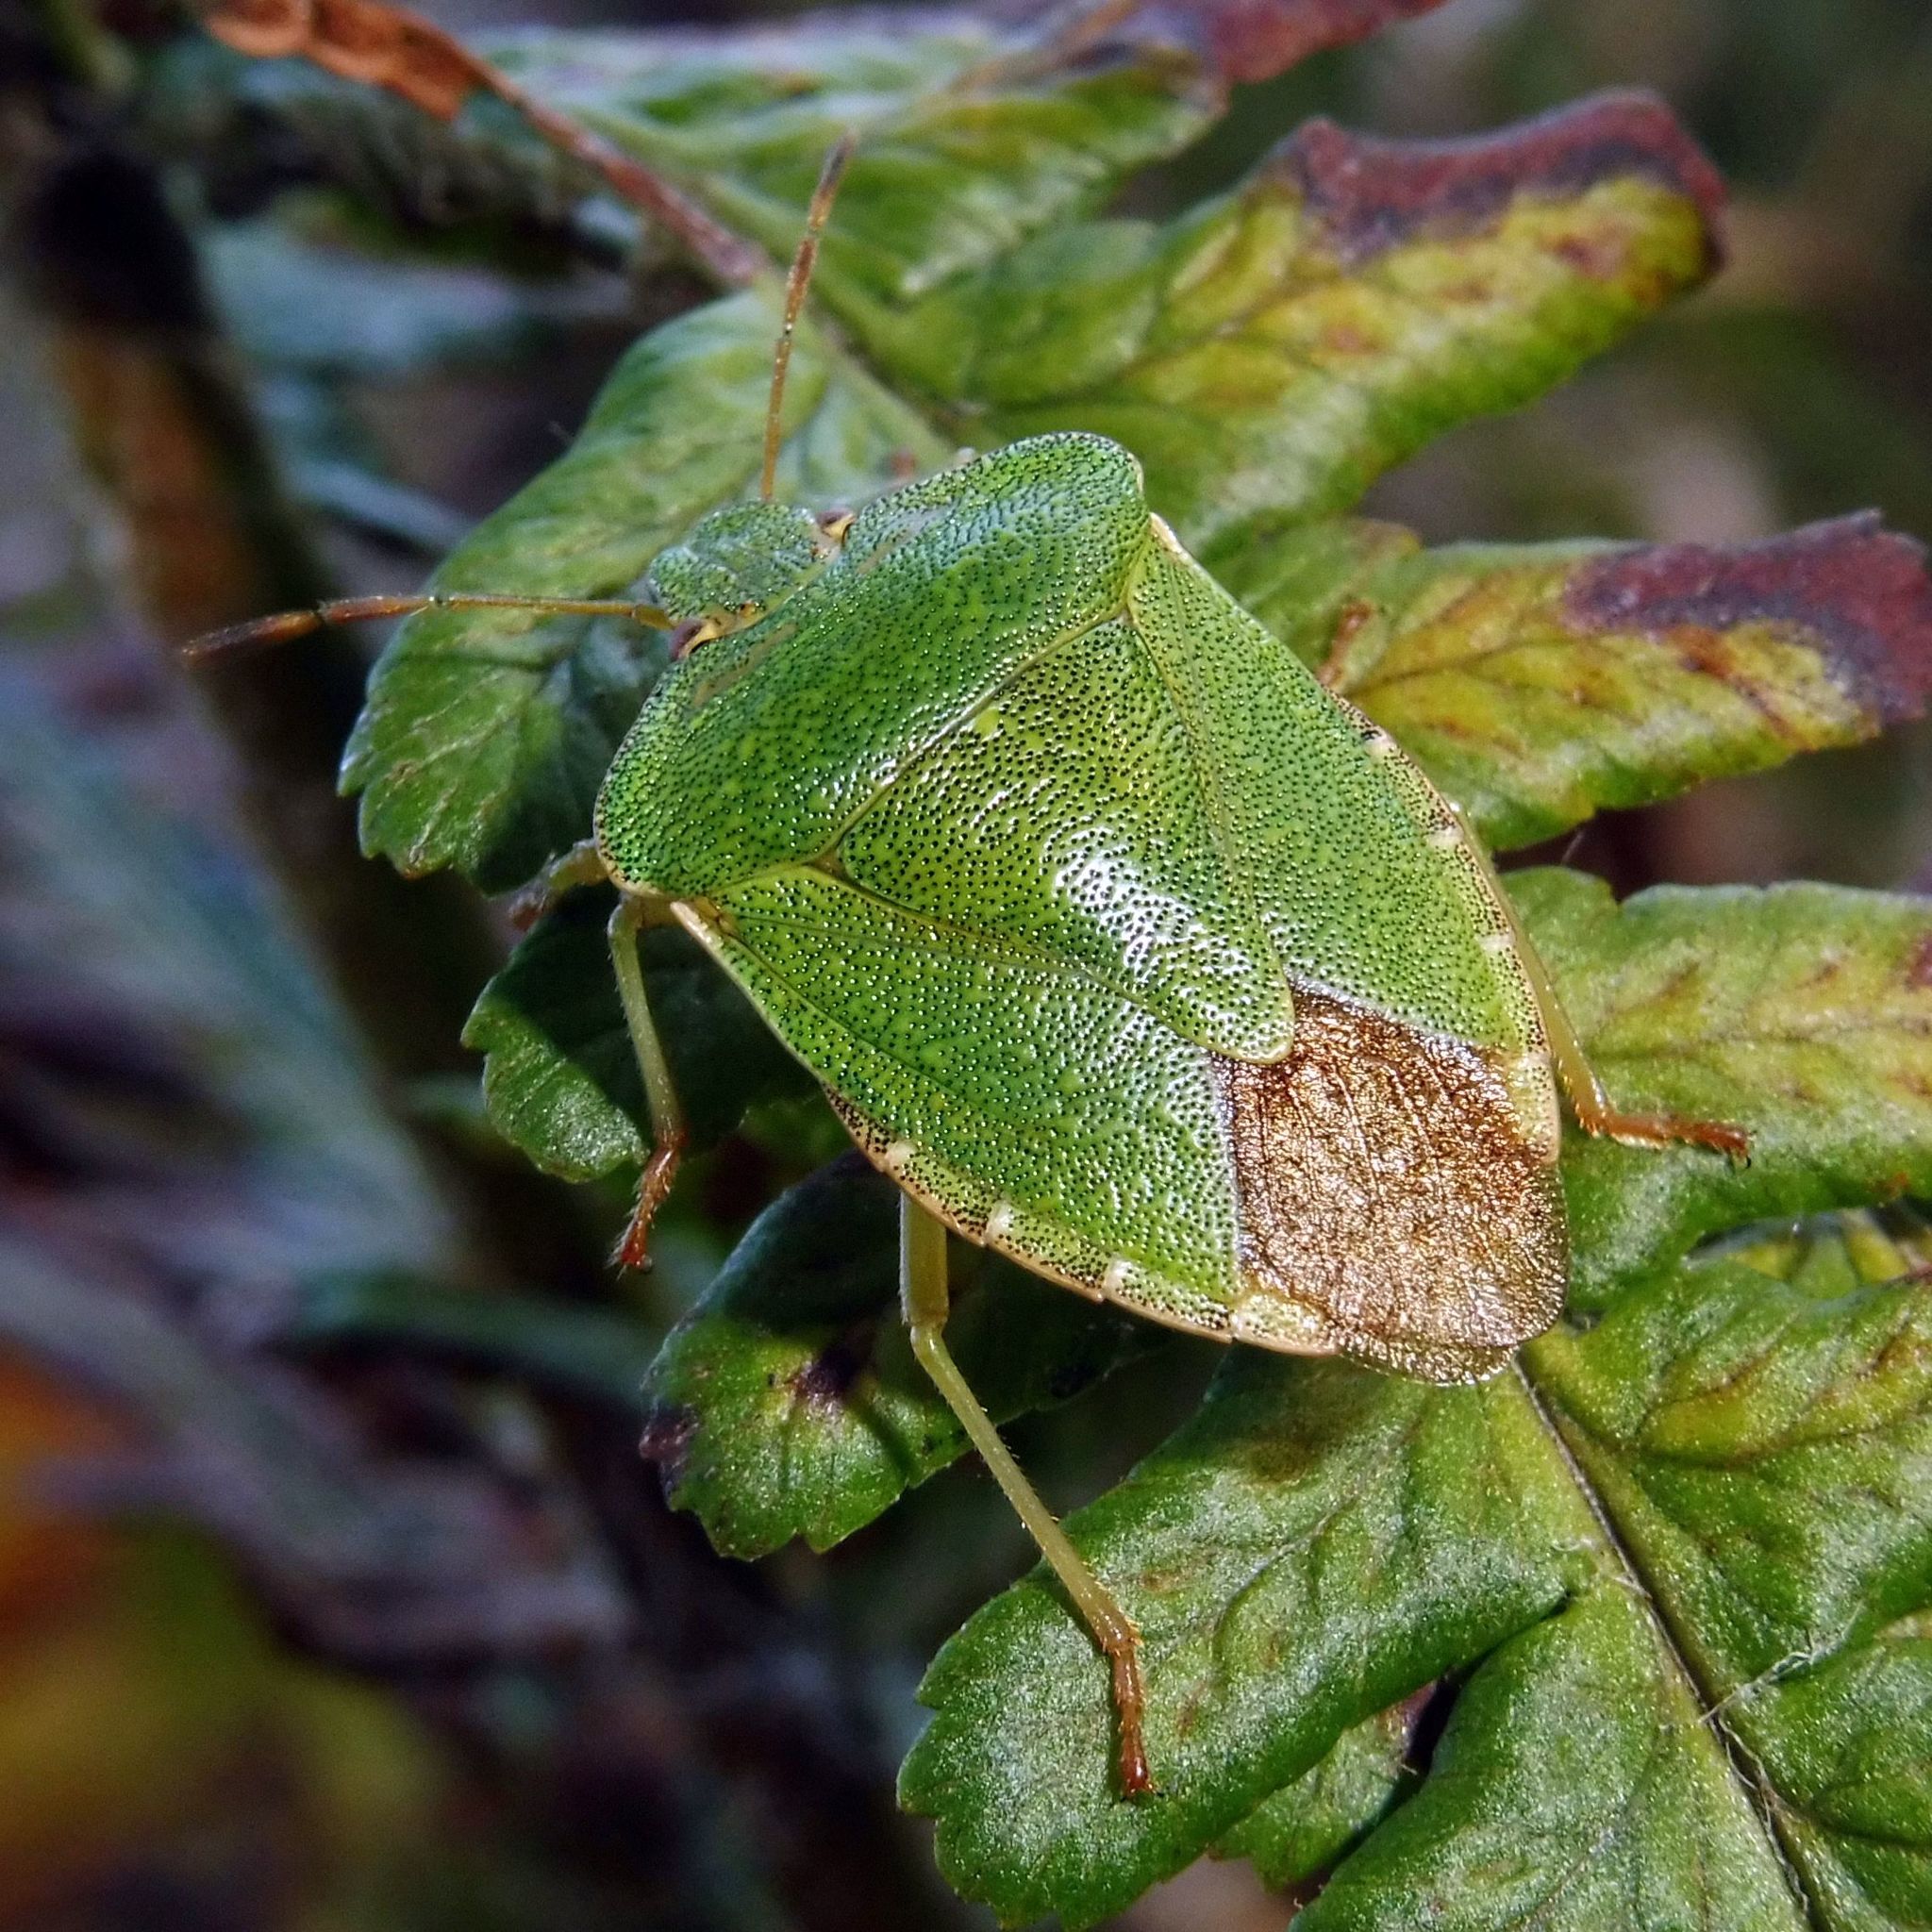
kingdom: Animalia
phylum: Arthropoda
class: Insecta
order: Hemiptera
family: Pentatomidae
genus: Palomena
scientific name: Palomena prasina
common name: Green shieldbug
